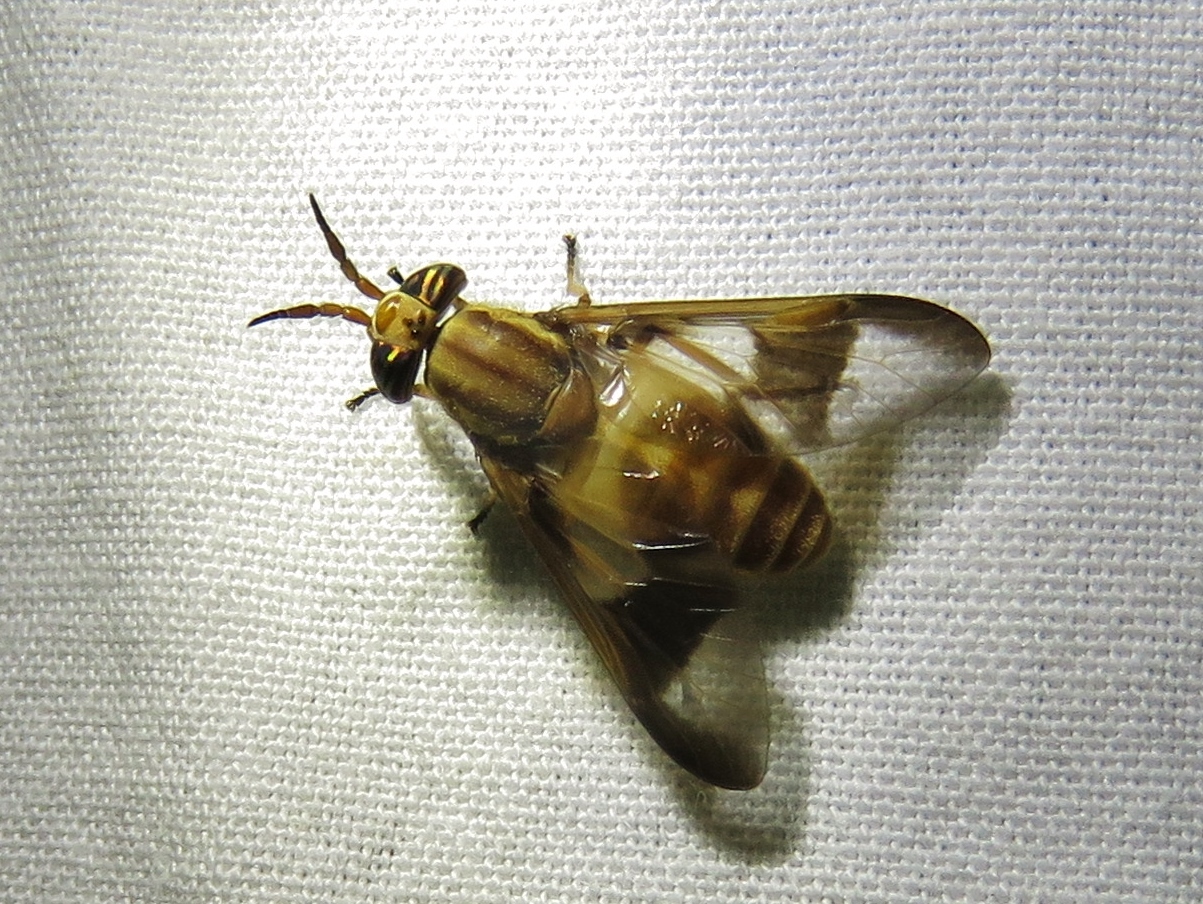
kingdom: Animalia
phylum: Arthropoda
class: Insecta
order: Diptera
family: Tabanidae
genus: Chrysops
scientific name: Chrysops flavidus
